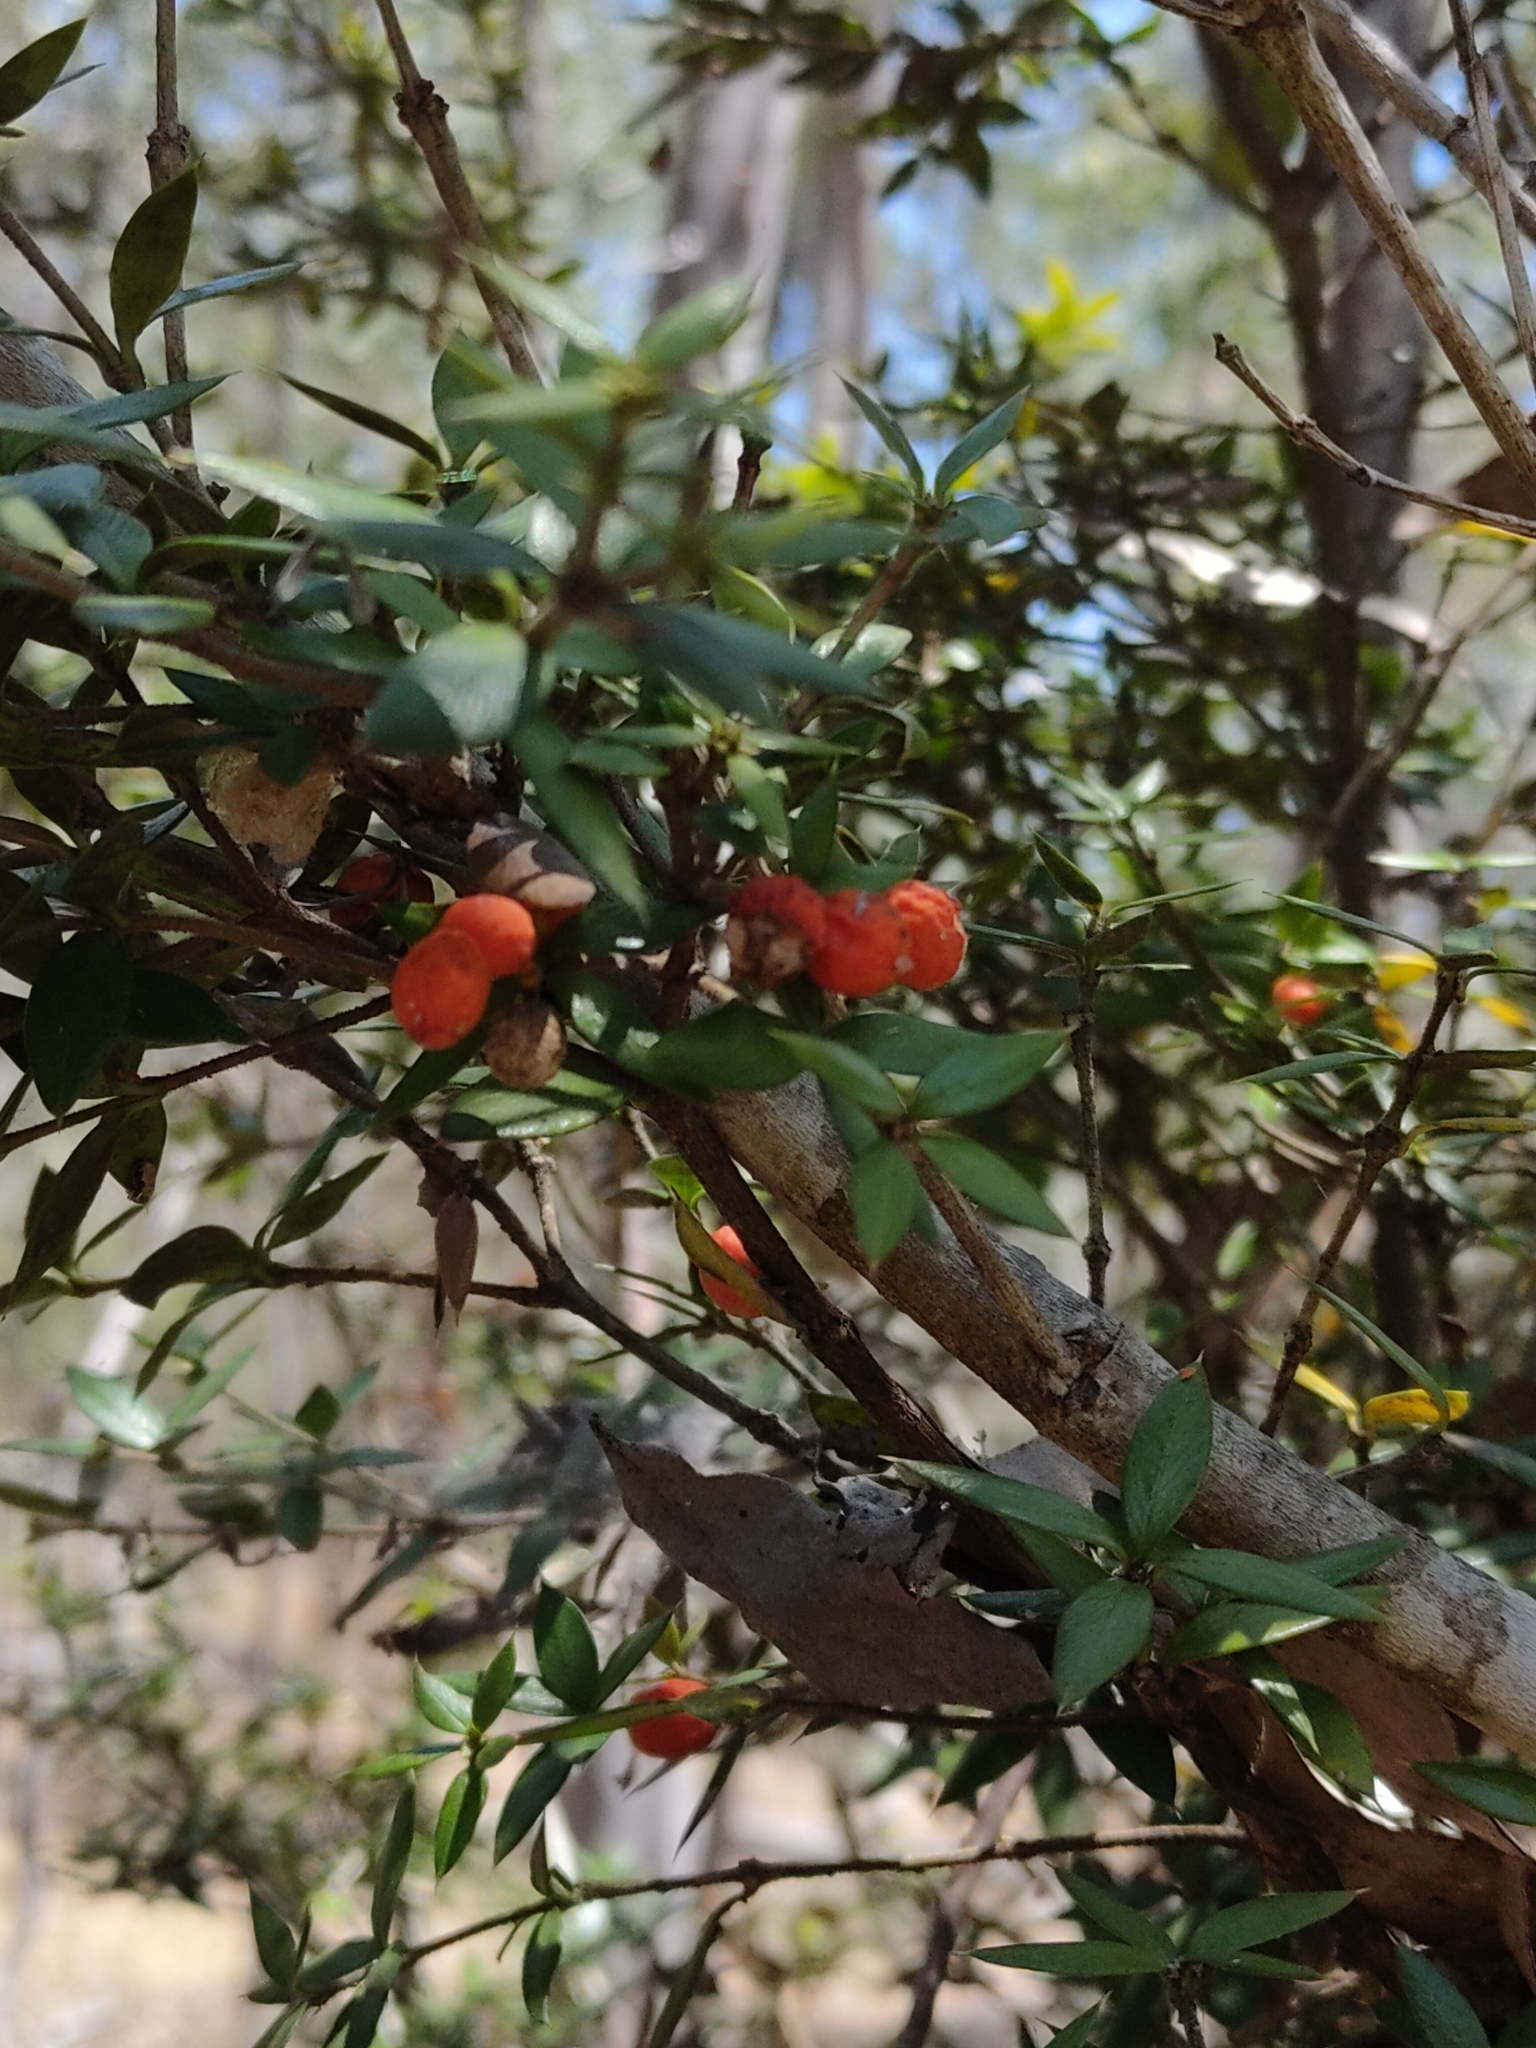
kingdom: Plantae
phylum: Tracheophyta
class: Magnoliopsida
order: Gentianales
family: Apocynaceae
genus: Alyxia
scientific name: Alyxia ruscifolia
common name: Chainfruit
